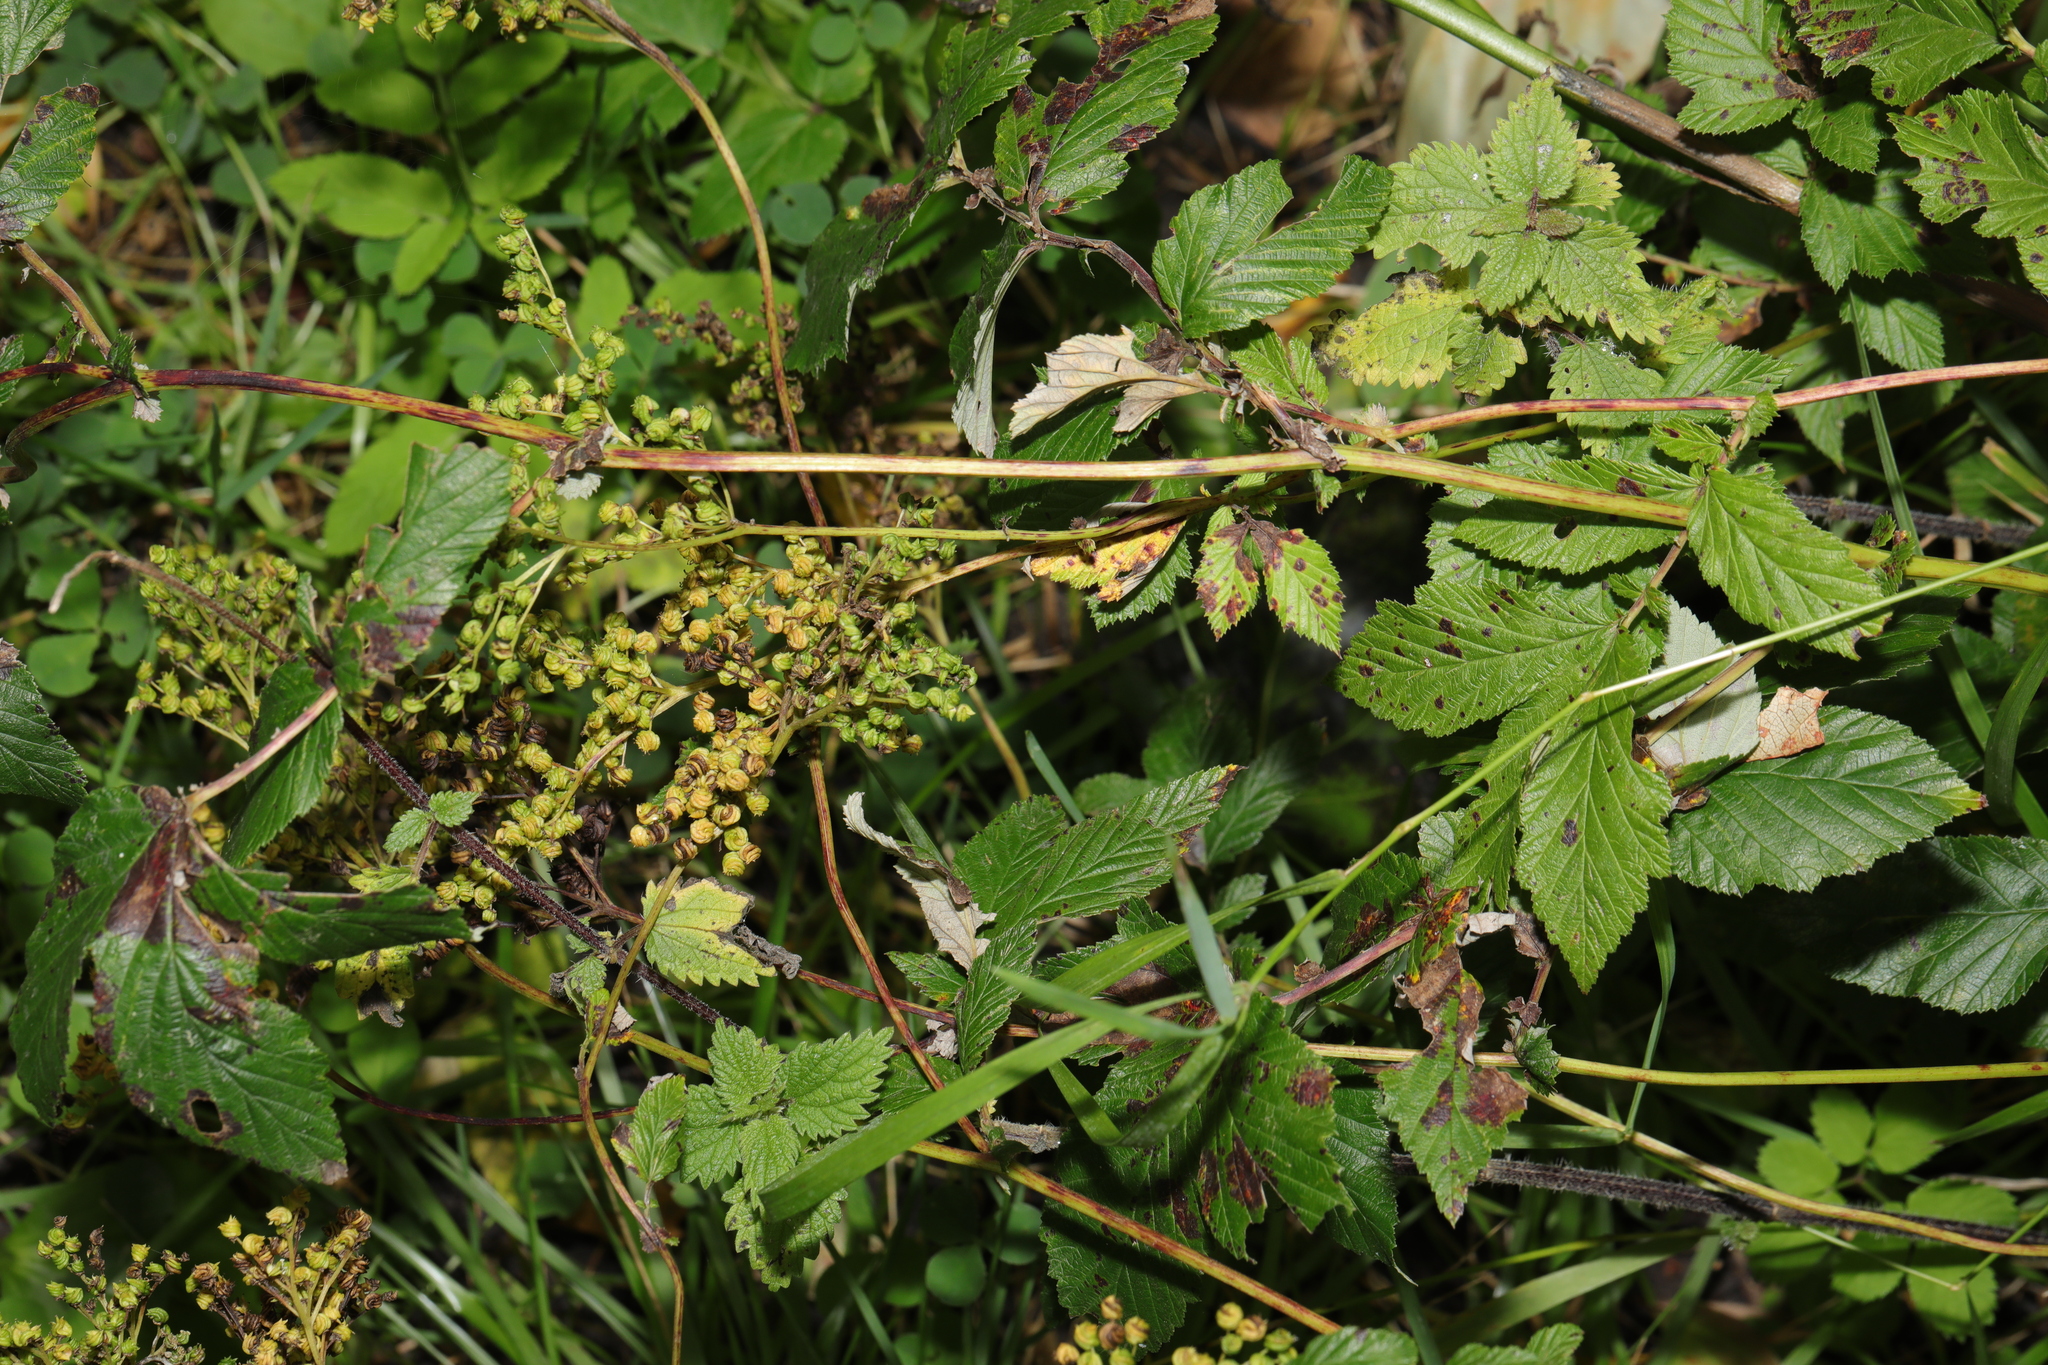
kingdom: Plantae
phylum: Tracheophyta
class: Magnoliopsida
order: Rosales
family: Rosaceae
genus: Filipendula
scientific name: Filipendula ulmaria
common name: Meadowsweet
